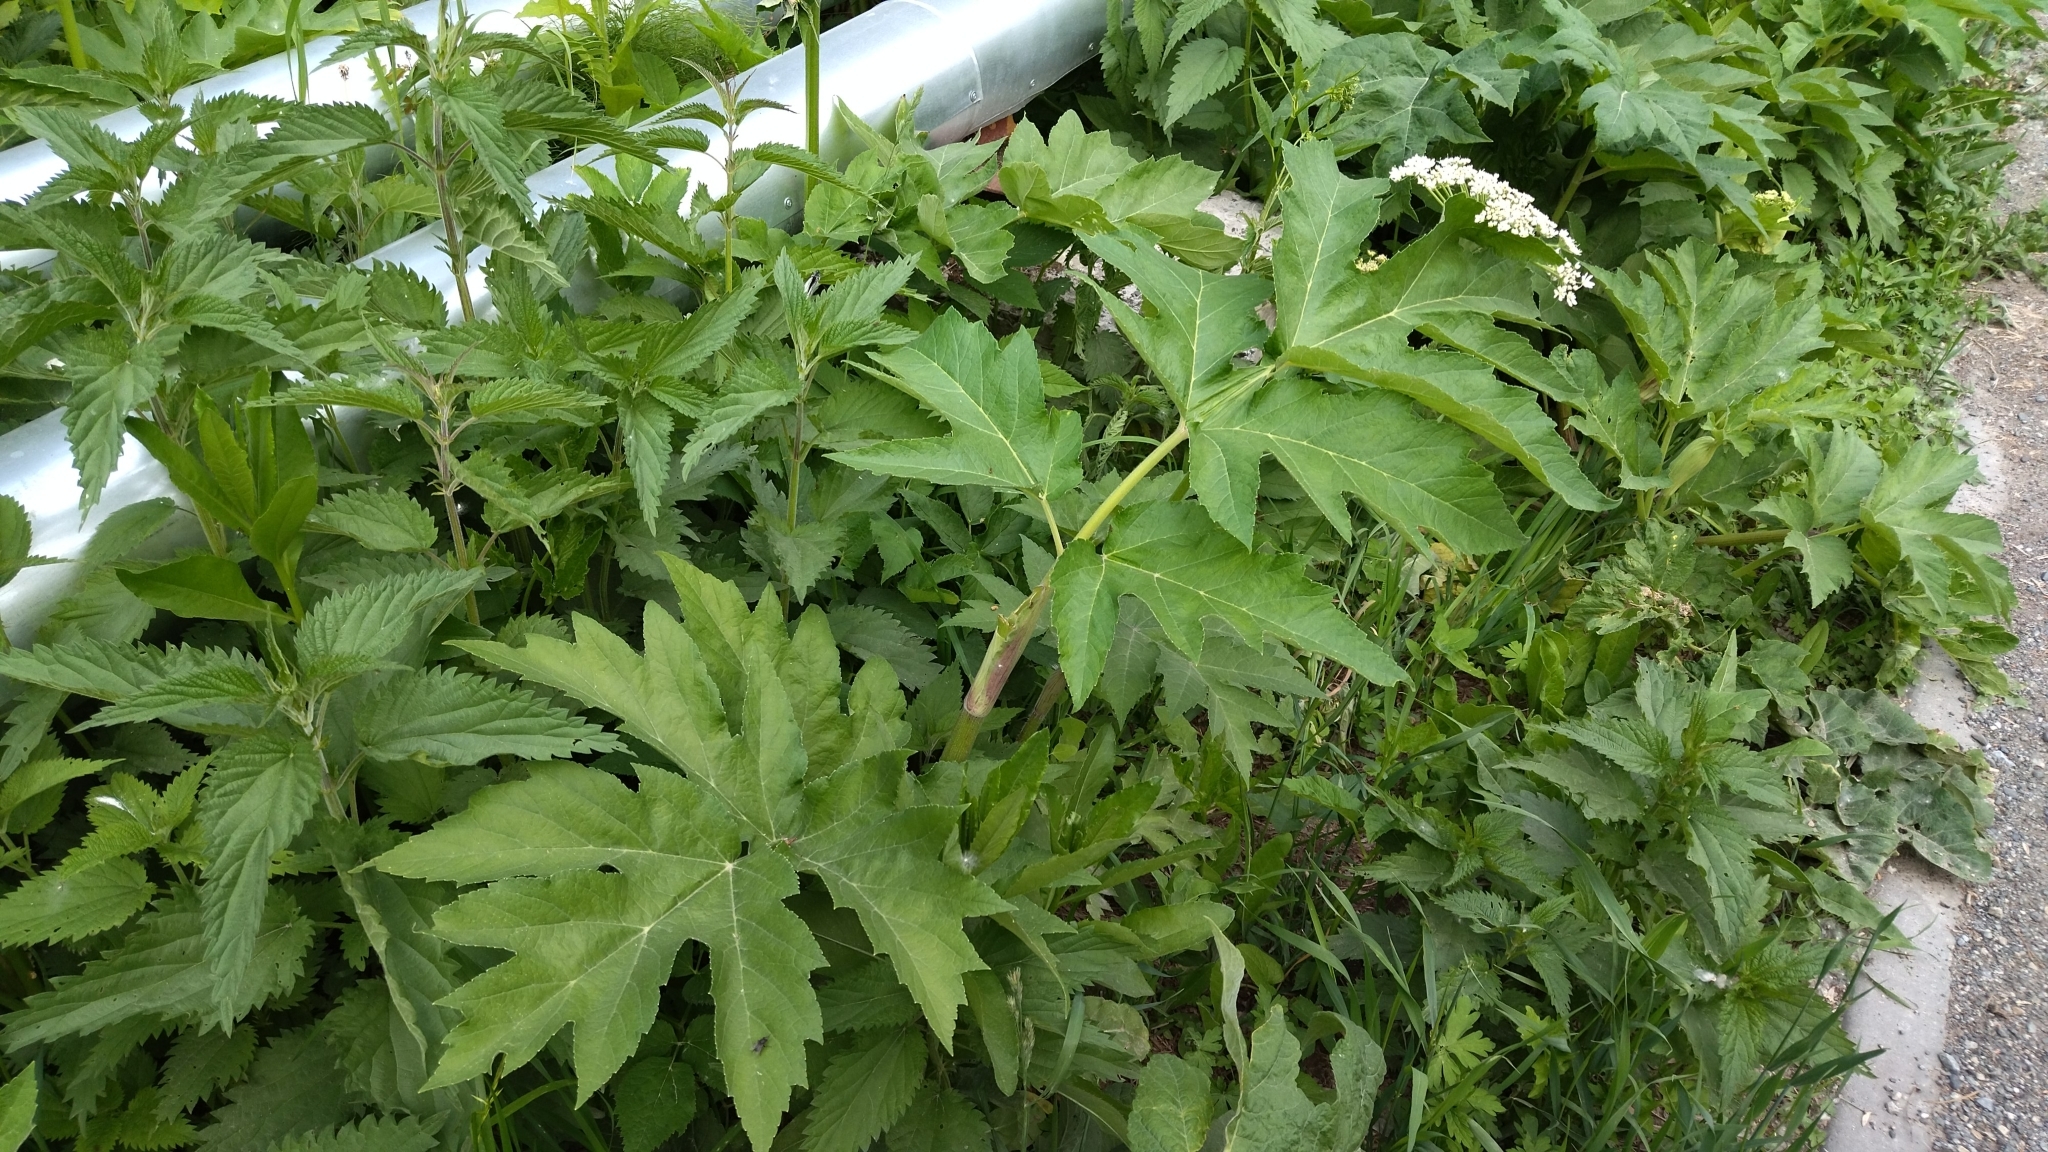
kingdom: Plantae
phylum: Tracheophyta
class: Magnoliopsida
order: Apiales
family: Apiaceae
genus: Heracleum
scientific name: Heracleum dissectum
